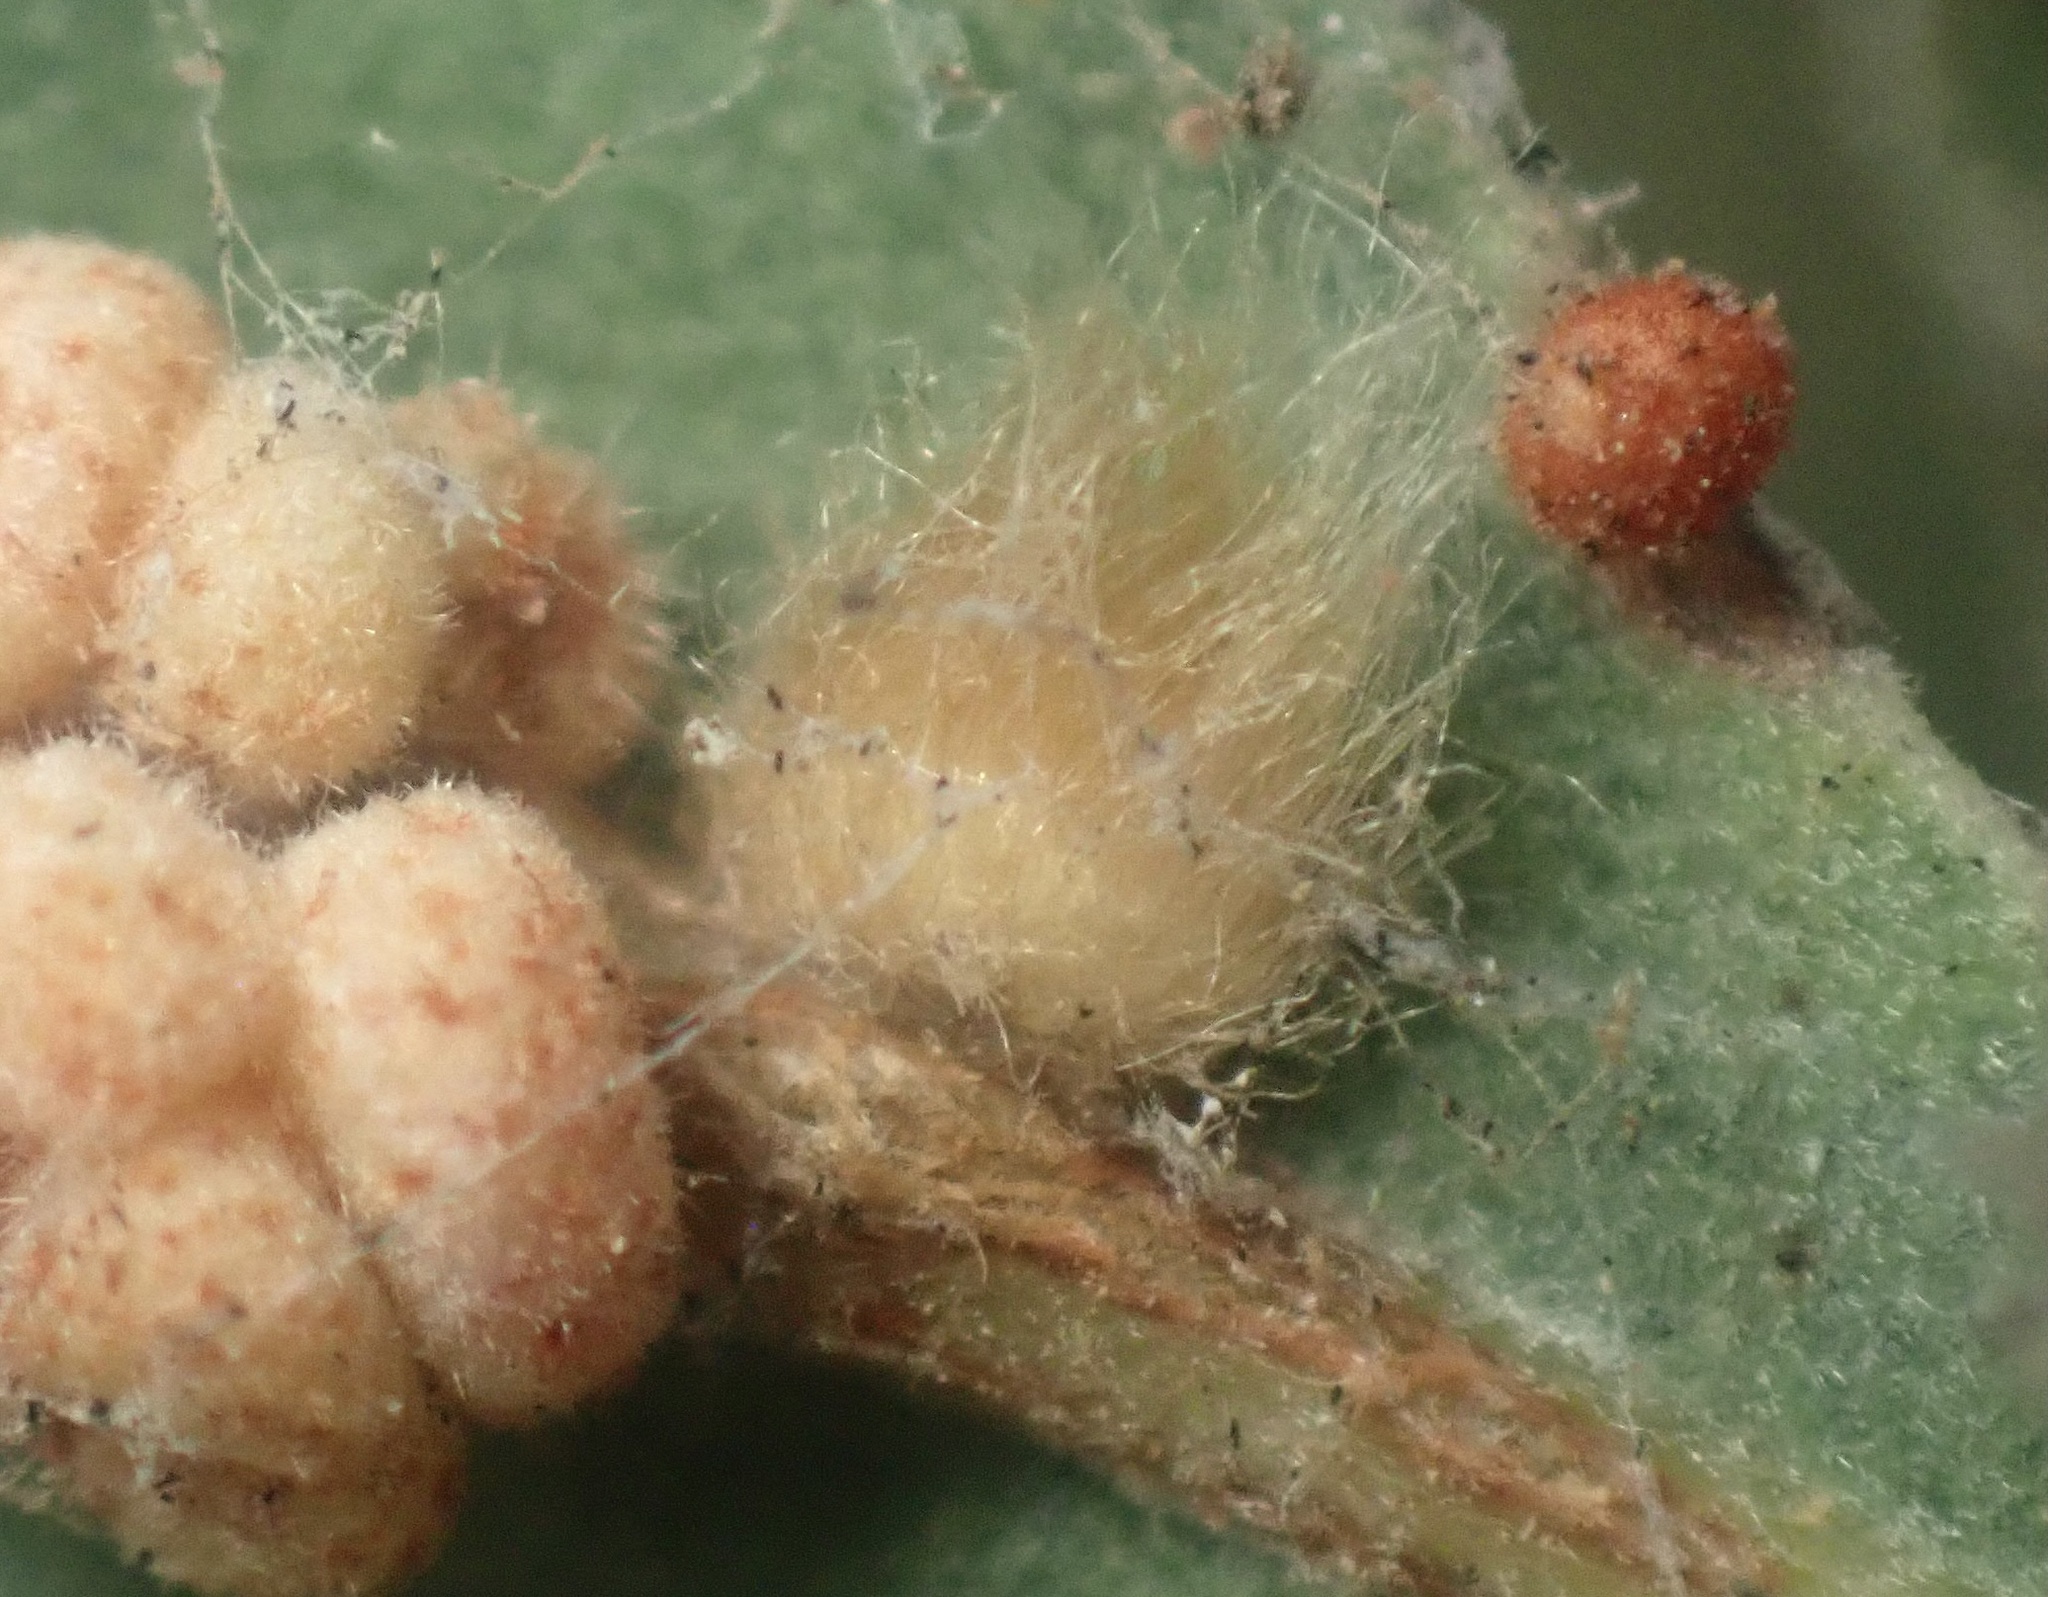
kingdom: Animalia
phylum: Arthropoda
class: Insecta
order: Hymenoptera
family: Cynipidae
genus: Andricus
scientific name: Andricus Druon fullawayi
